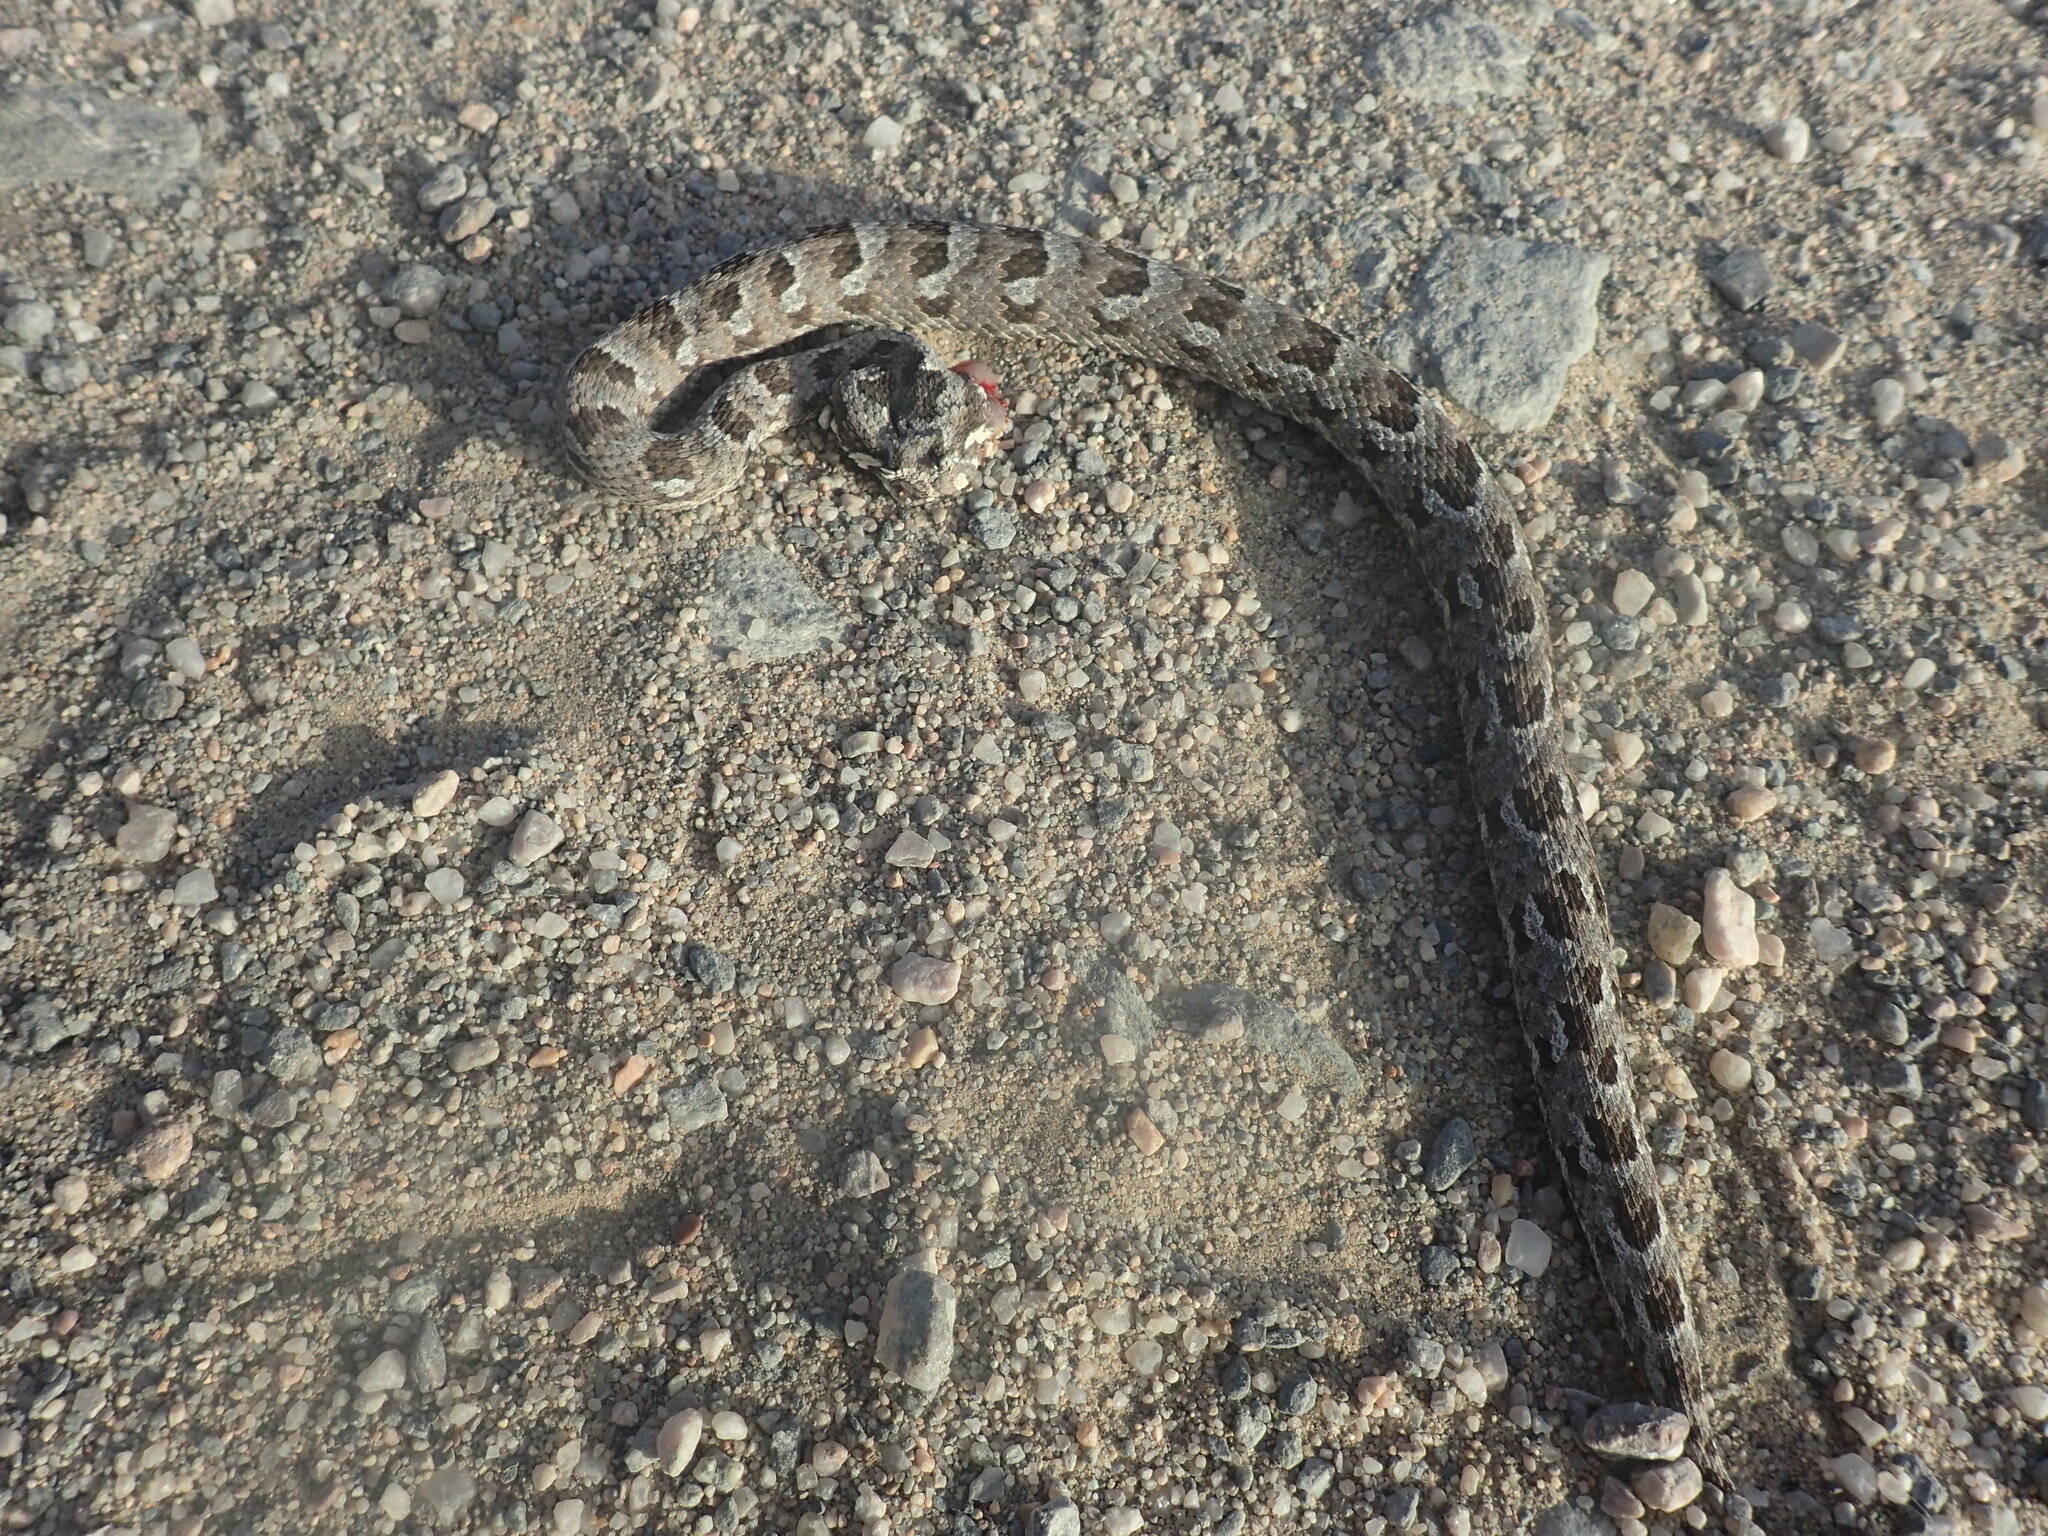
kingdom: Animalia
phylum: Chordata
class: Squamata
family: Viperidae
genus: Bitis
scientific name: Bitis cornuta
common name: Many-horned adder
